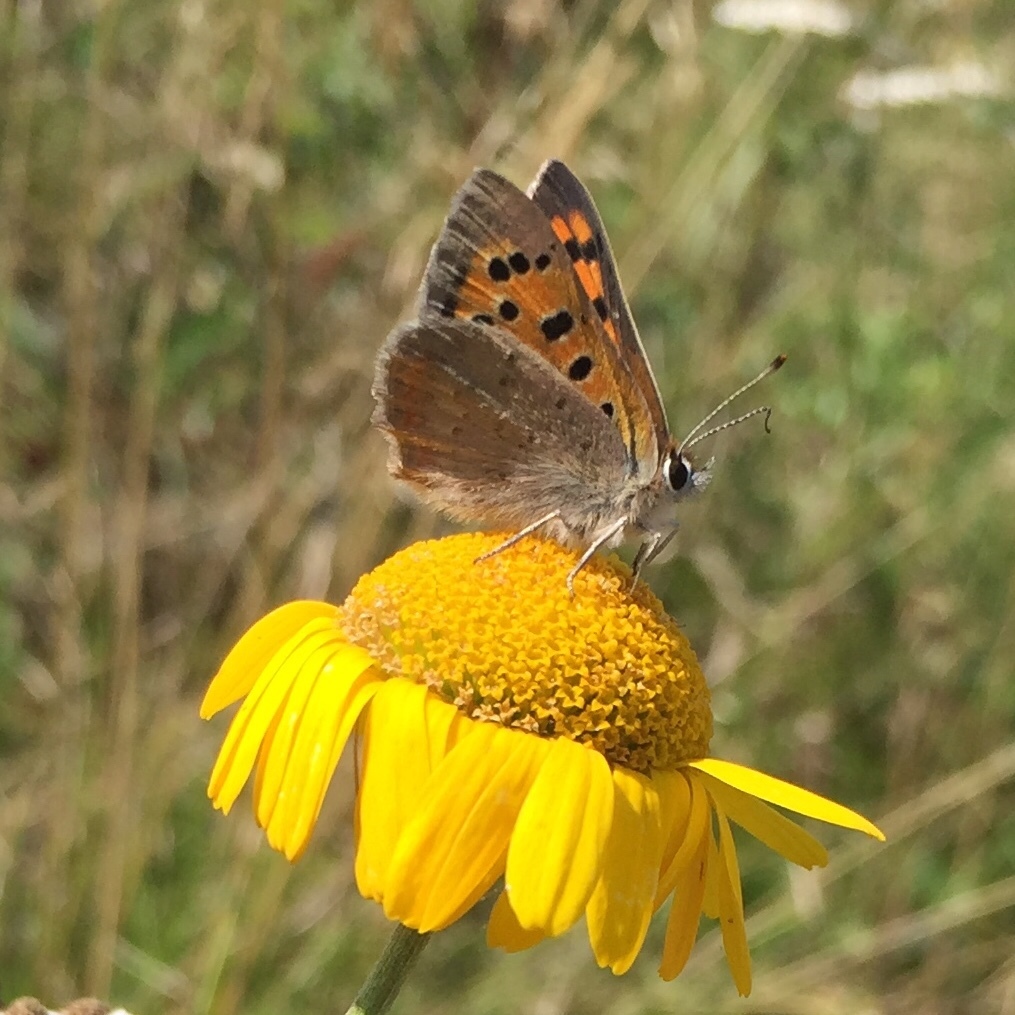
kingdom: Animalia
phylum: Arthropoda
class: Insecta
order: Lepidoptera
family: Lycaenidae
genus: Lycaena
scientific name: Lycaena phlaeas
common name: Small copper
